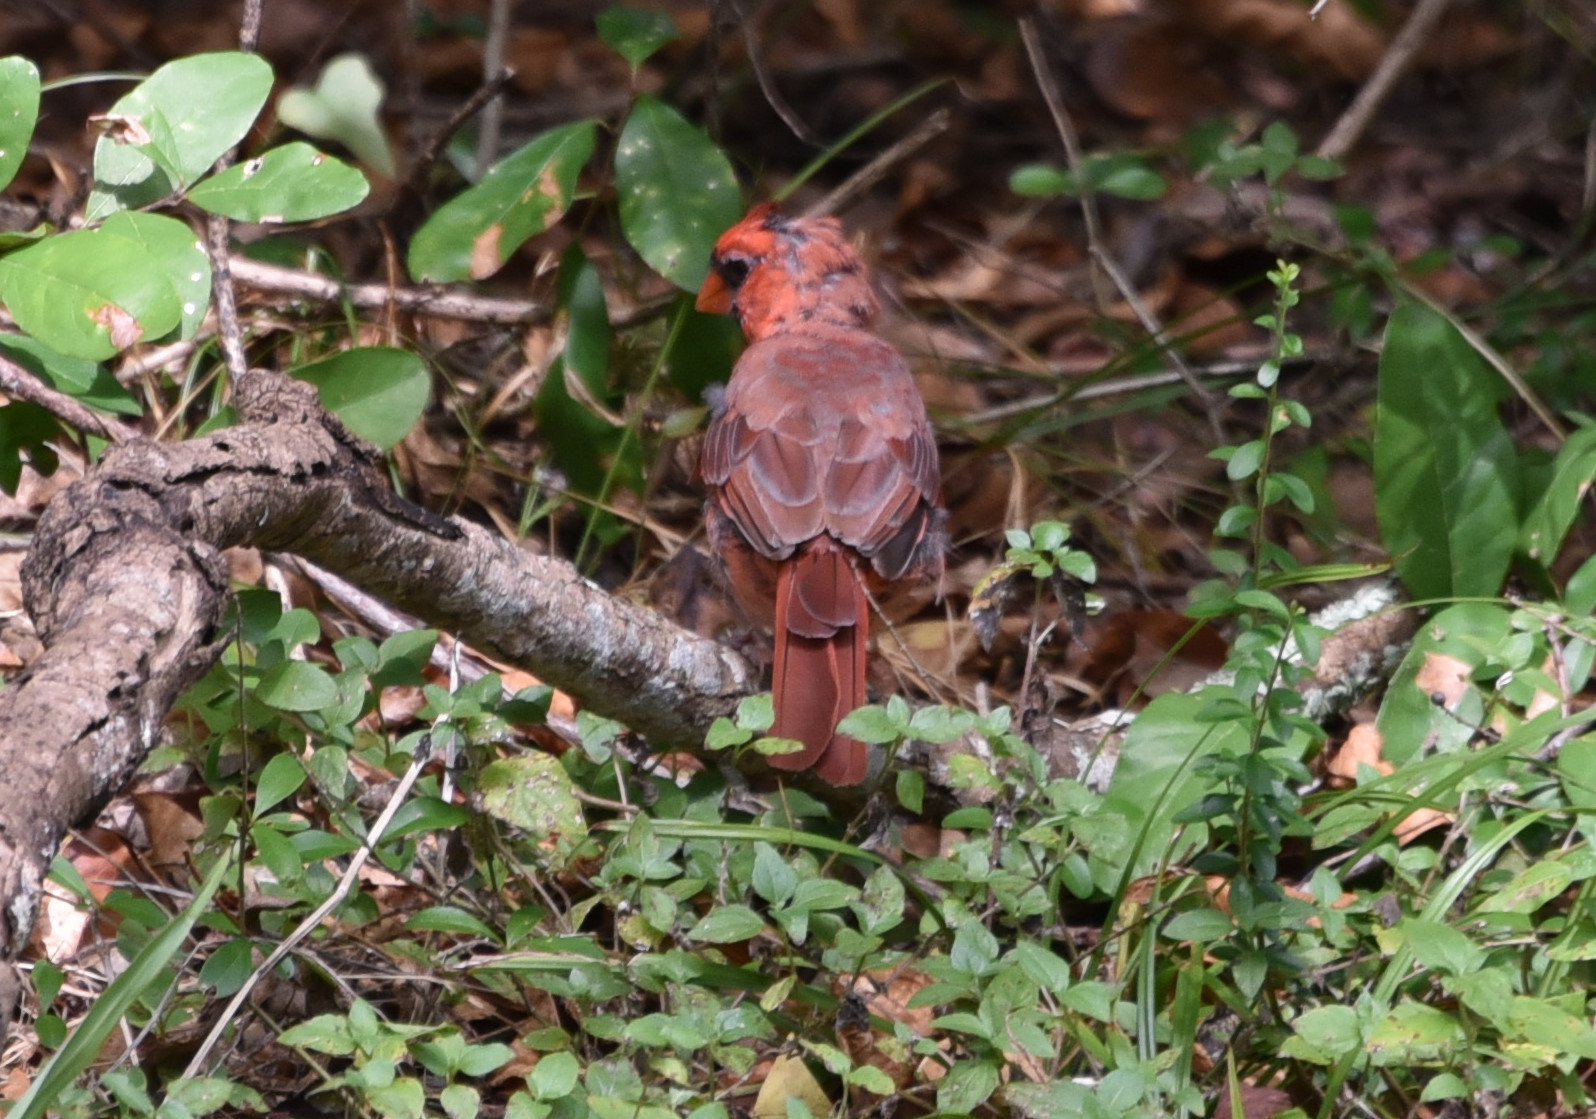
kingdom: Animalia
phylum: Chordata
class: Aves
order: Passeriformes
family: Cardinalidae
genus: Cardinalis
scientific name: Cardinalis cardinalis
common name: Northern cardinal
